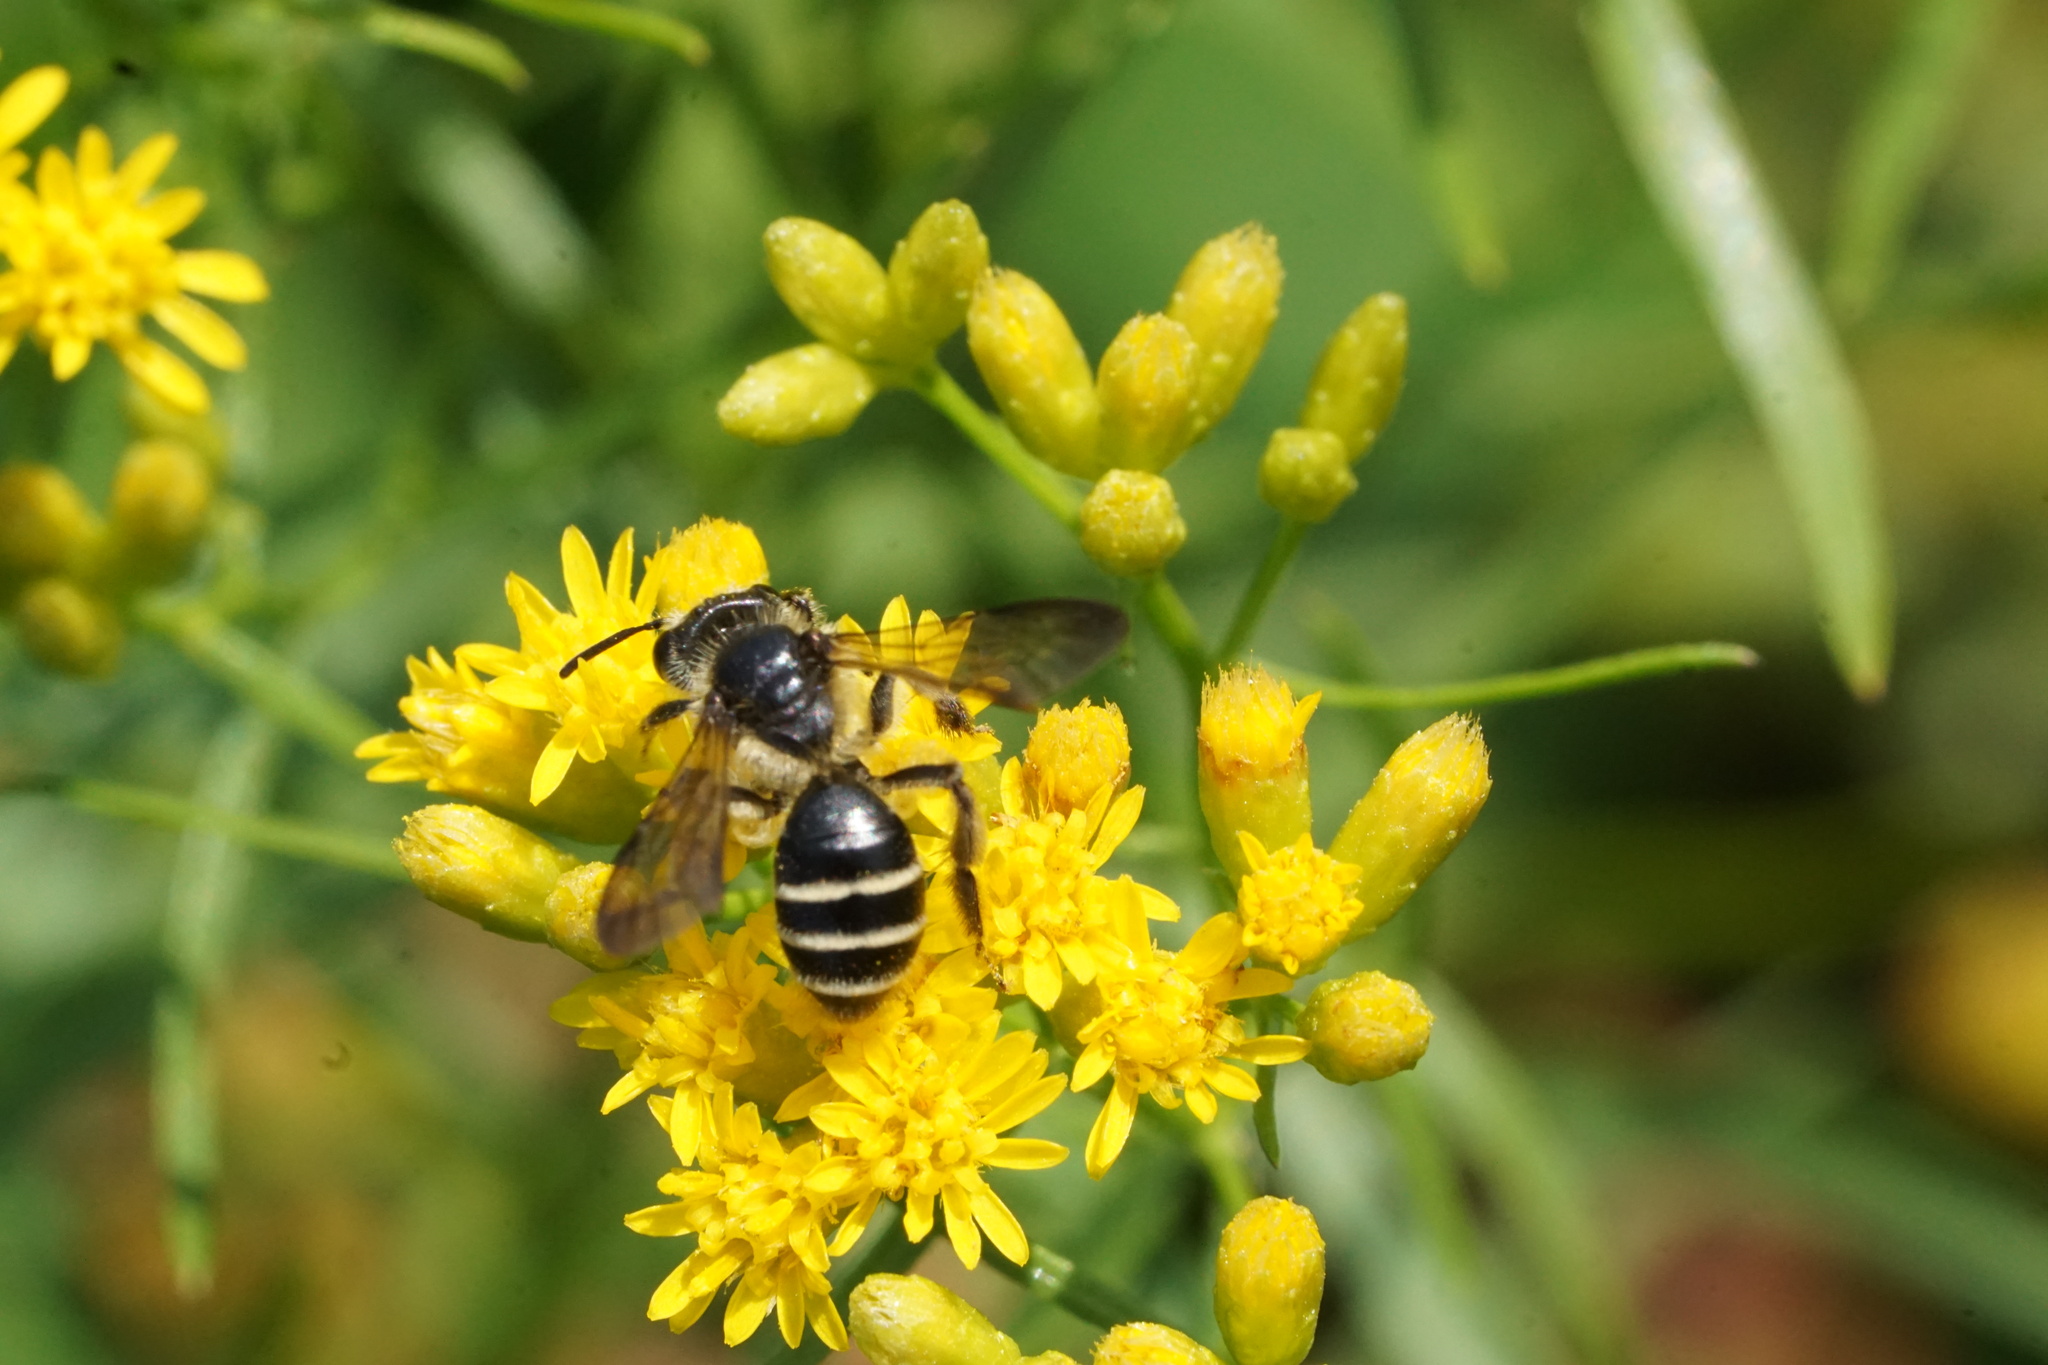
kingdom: Animalia
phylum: Arthropoda
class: Insecta
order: Hymenoptera
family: Andrenidae
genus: Andrena
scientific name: Andrena nubecula
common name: Cloudy-winged mining bee
